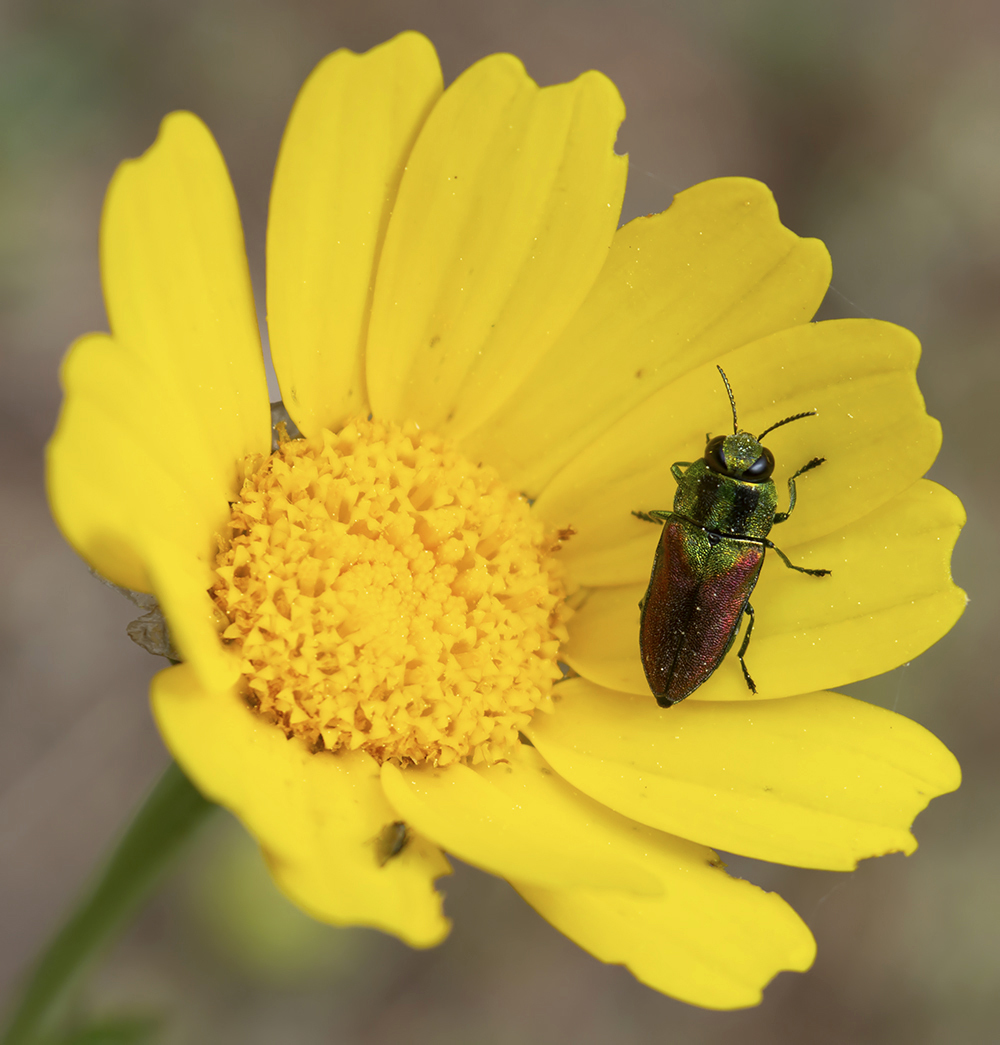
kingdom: Animalia
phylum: Arthropoda
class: Insecta
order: Coleoptera
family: Buprestidae
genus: Anthaxia
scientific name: Anthaxia passerinii
